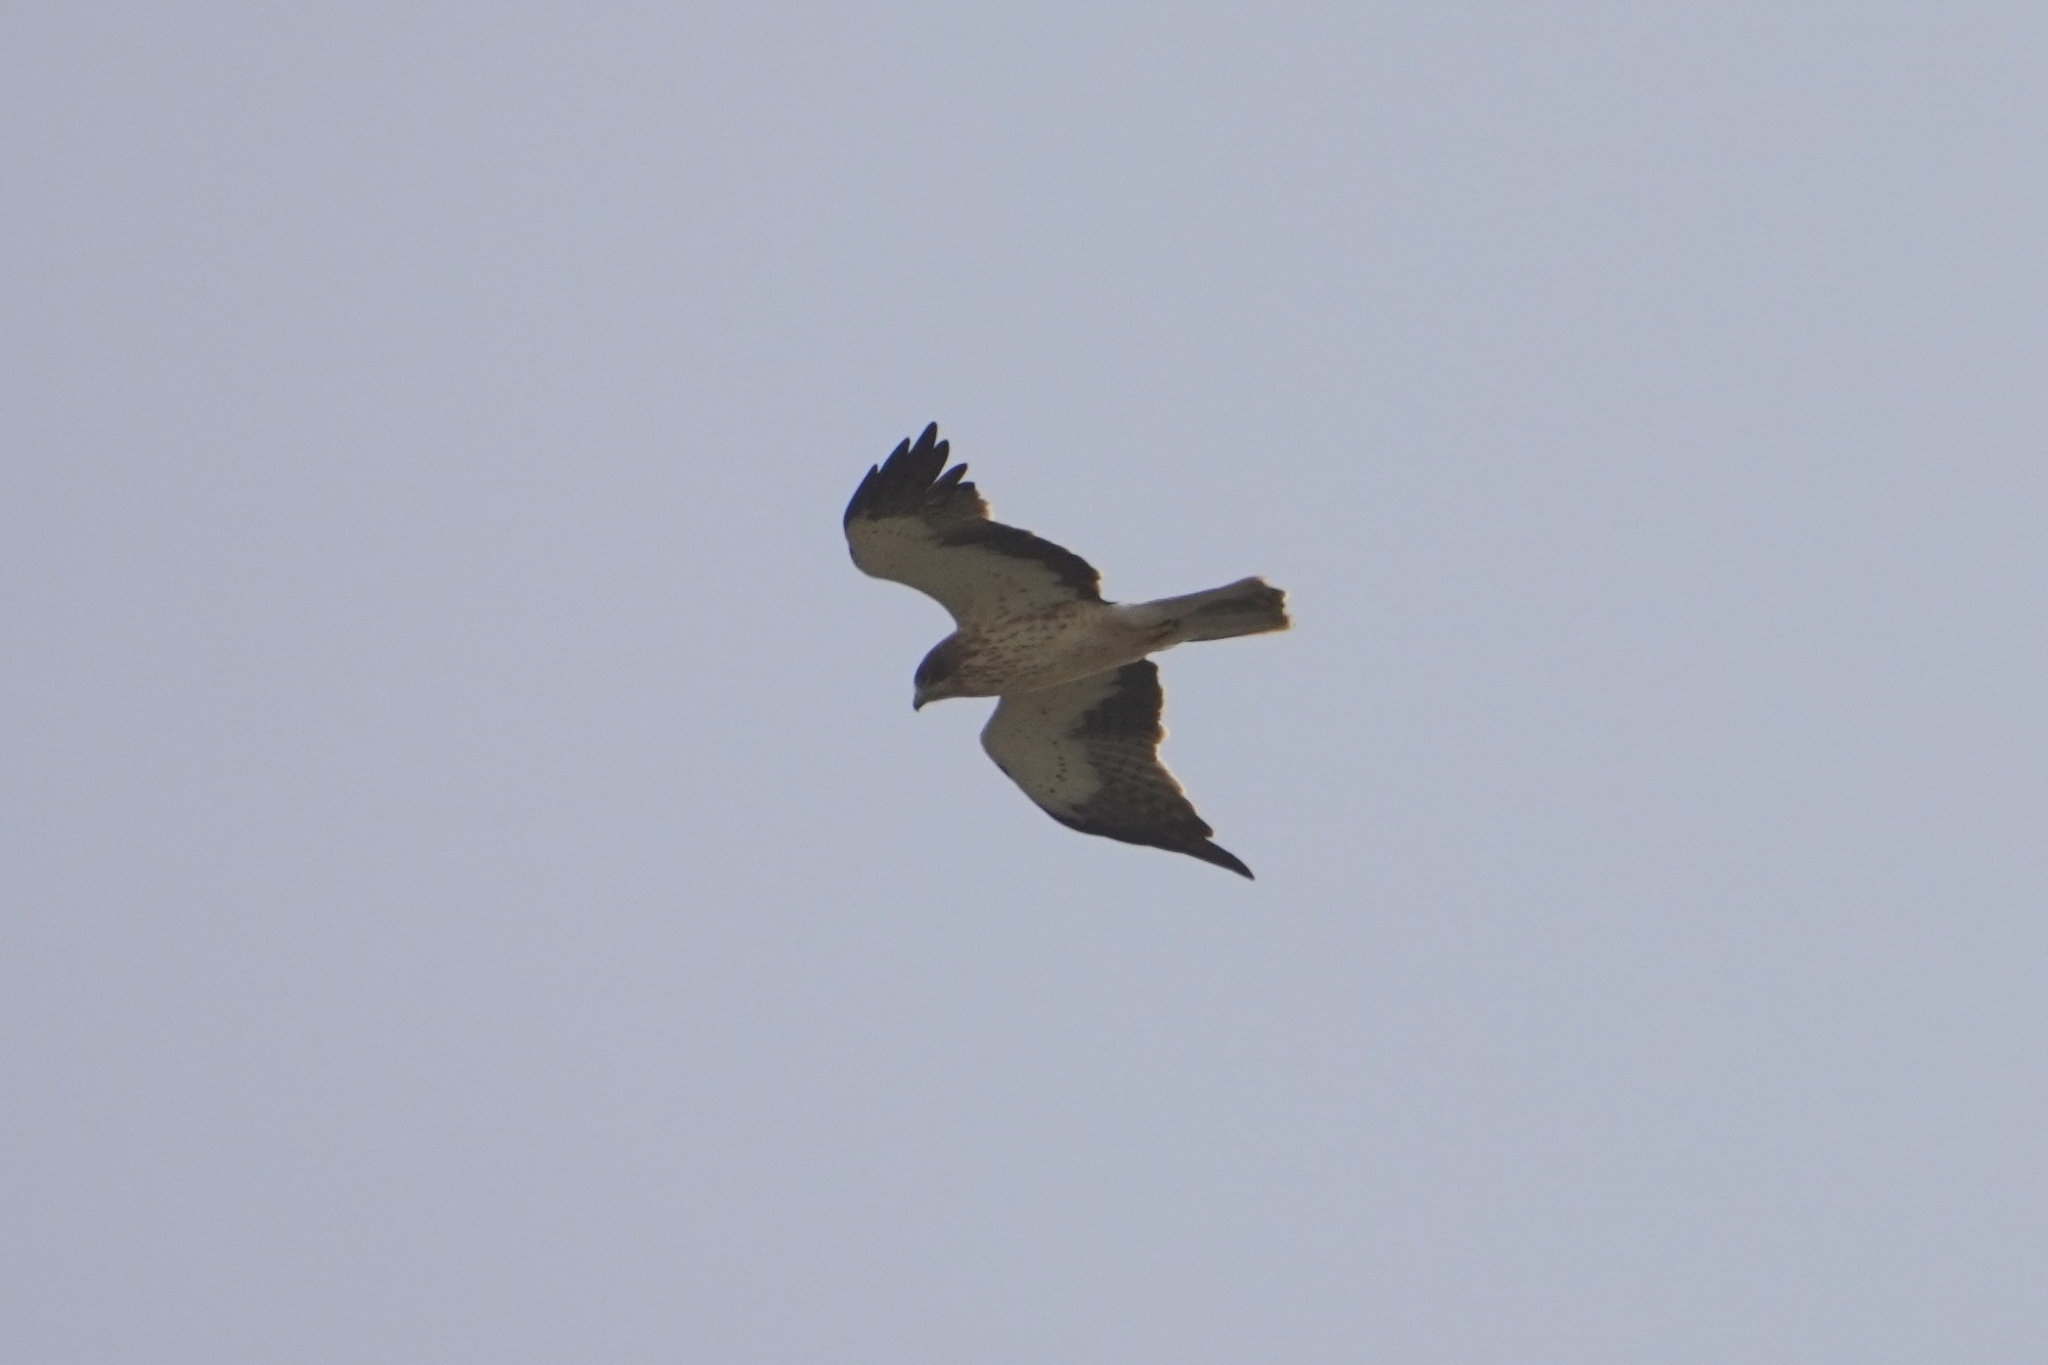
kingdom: Animalia
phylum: Chordata
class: Aves
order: Accipitriformes
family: Accipitridae
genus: Hieraaetus
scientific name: Hieraaetus pennatus
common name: Booted eagle
